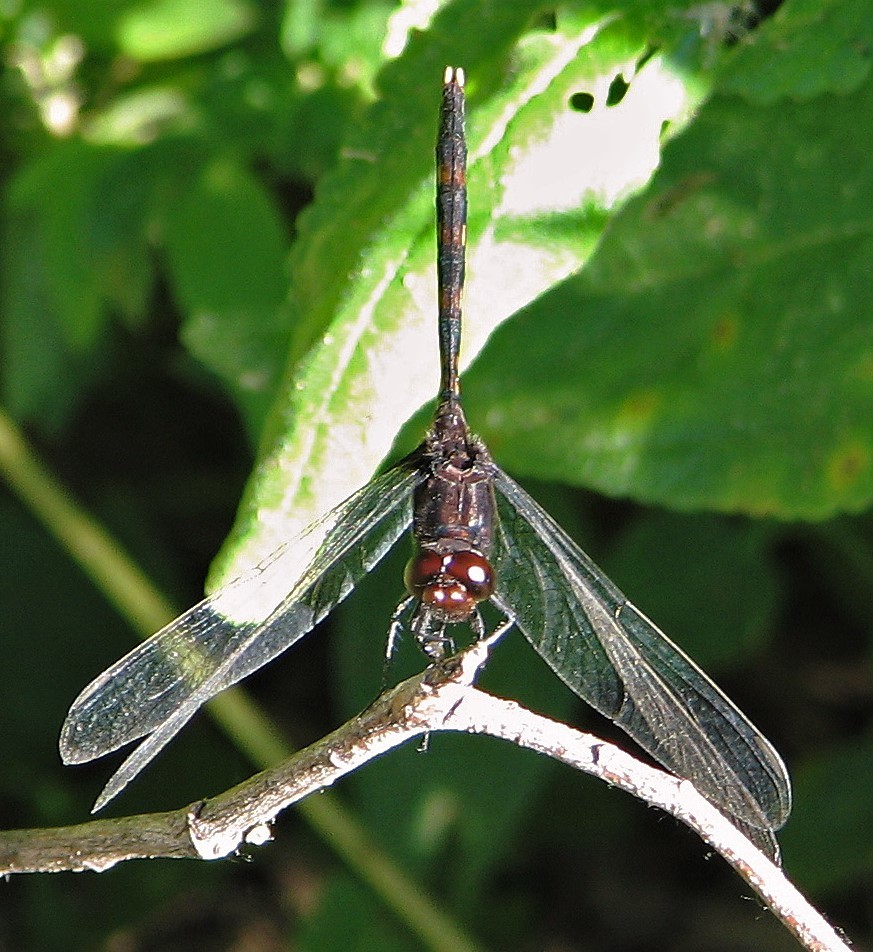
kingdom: Animalia
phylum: Arthropoda
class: Insecta
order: Odonata
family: Libellulidae
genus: Erythemis
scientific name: Erythemis plebeja
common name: Pin-tailed pondhawk
